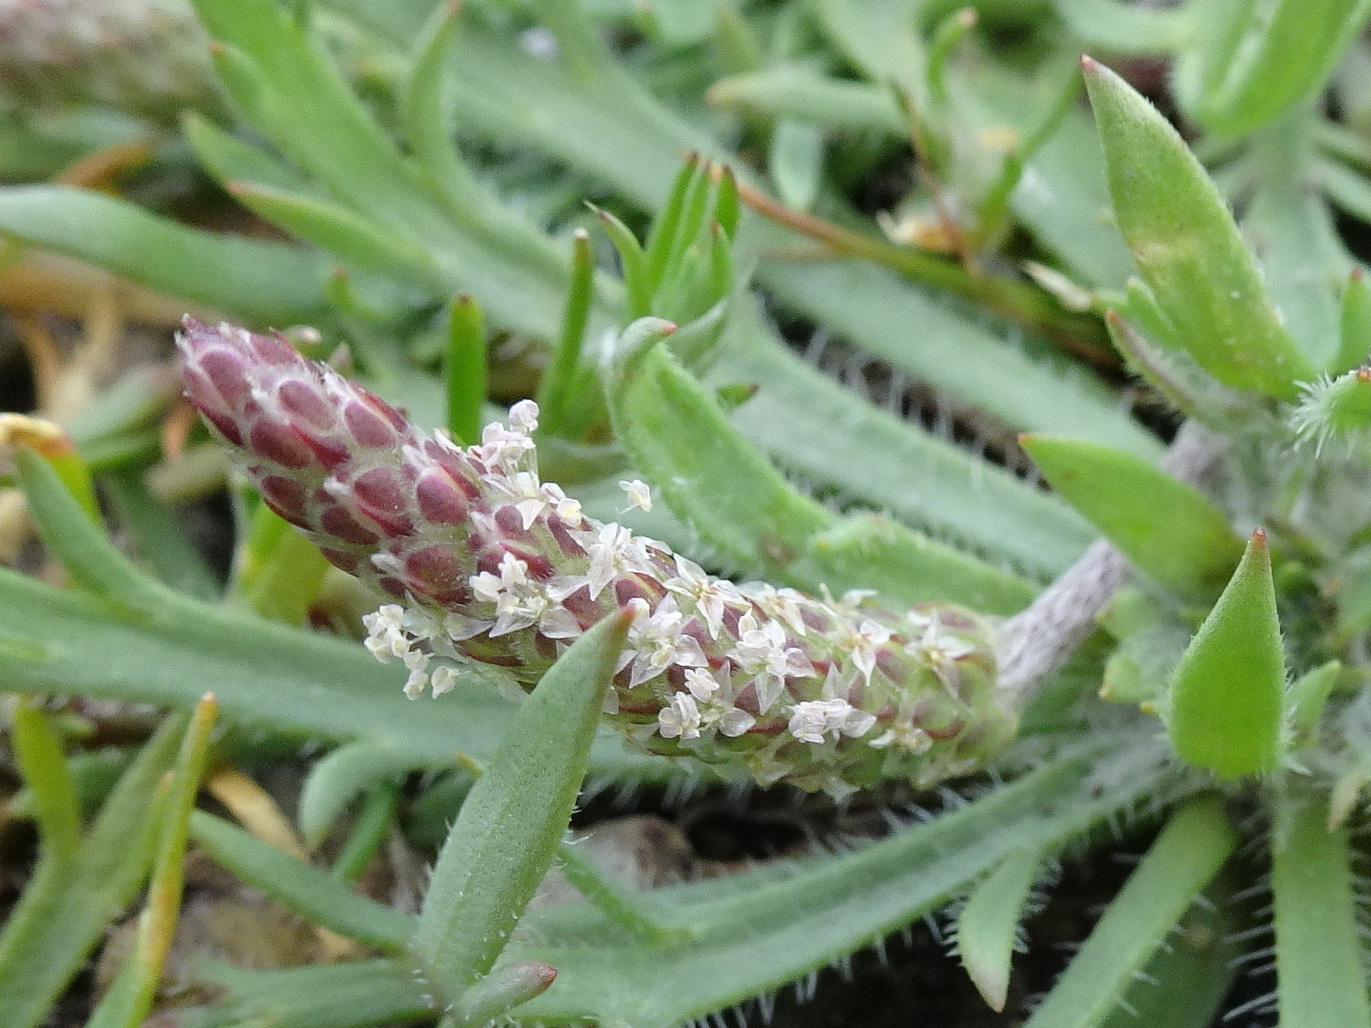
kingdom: Plantae
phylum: Tracheophyta
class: Magnoliopsida
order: Lamiales
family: Plantaginaceae
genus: Plantago
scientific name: Plantago coronopus
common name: Buck's-horn plantain
